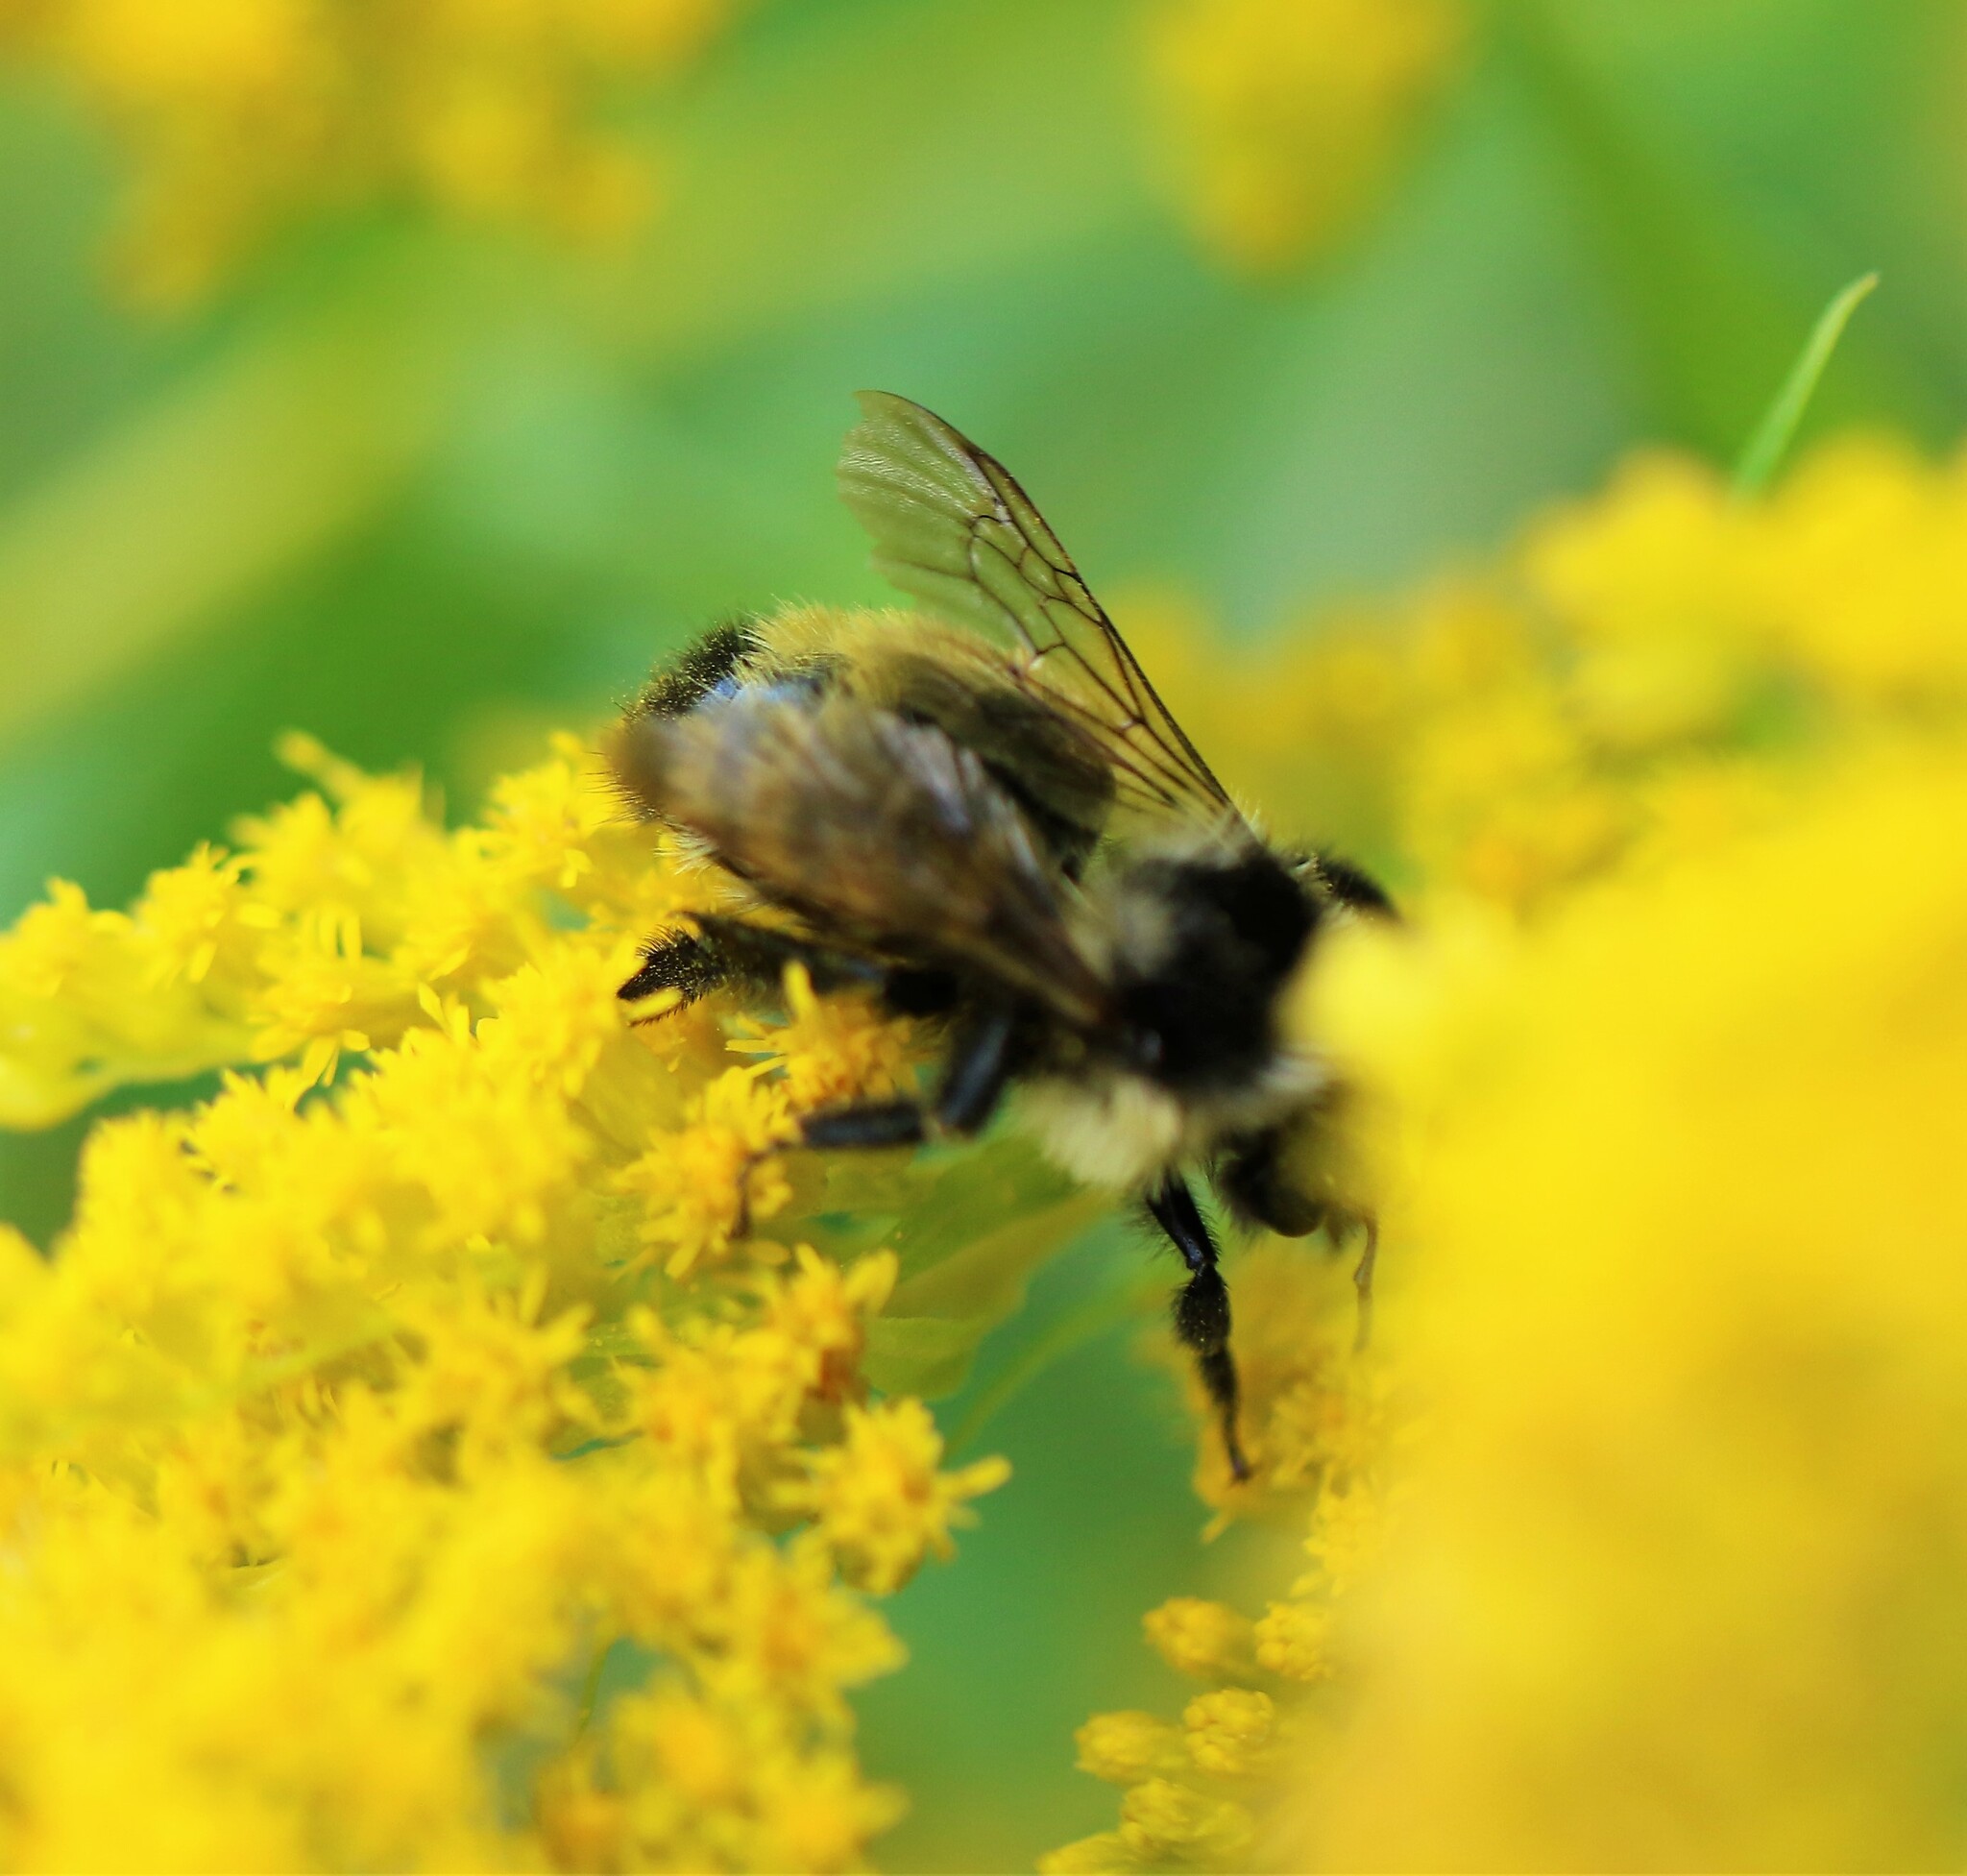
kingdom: Animalia
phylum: Arthropoda
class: Insecta
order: Hymenoptera
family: Apidae
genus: Bombus
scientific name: Bombus ternarius
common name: Tri-colored bumble bee
